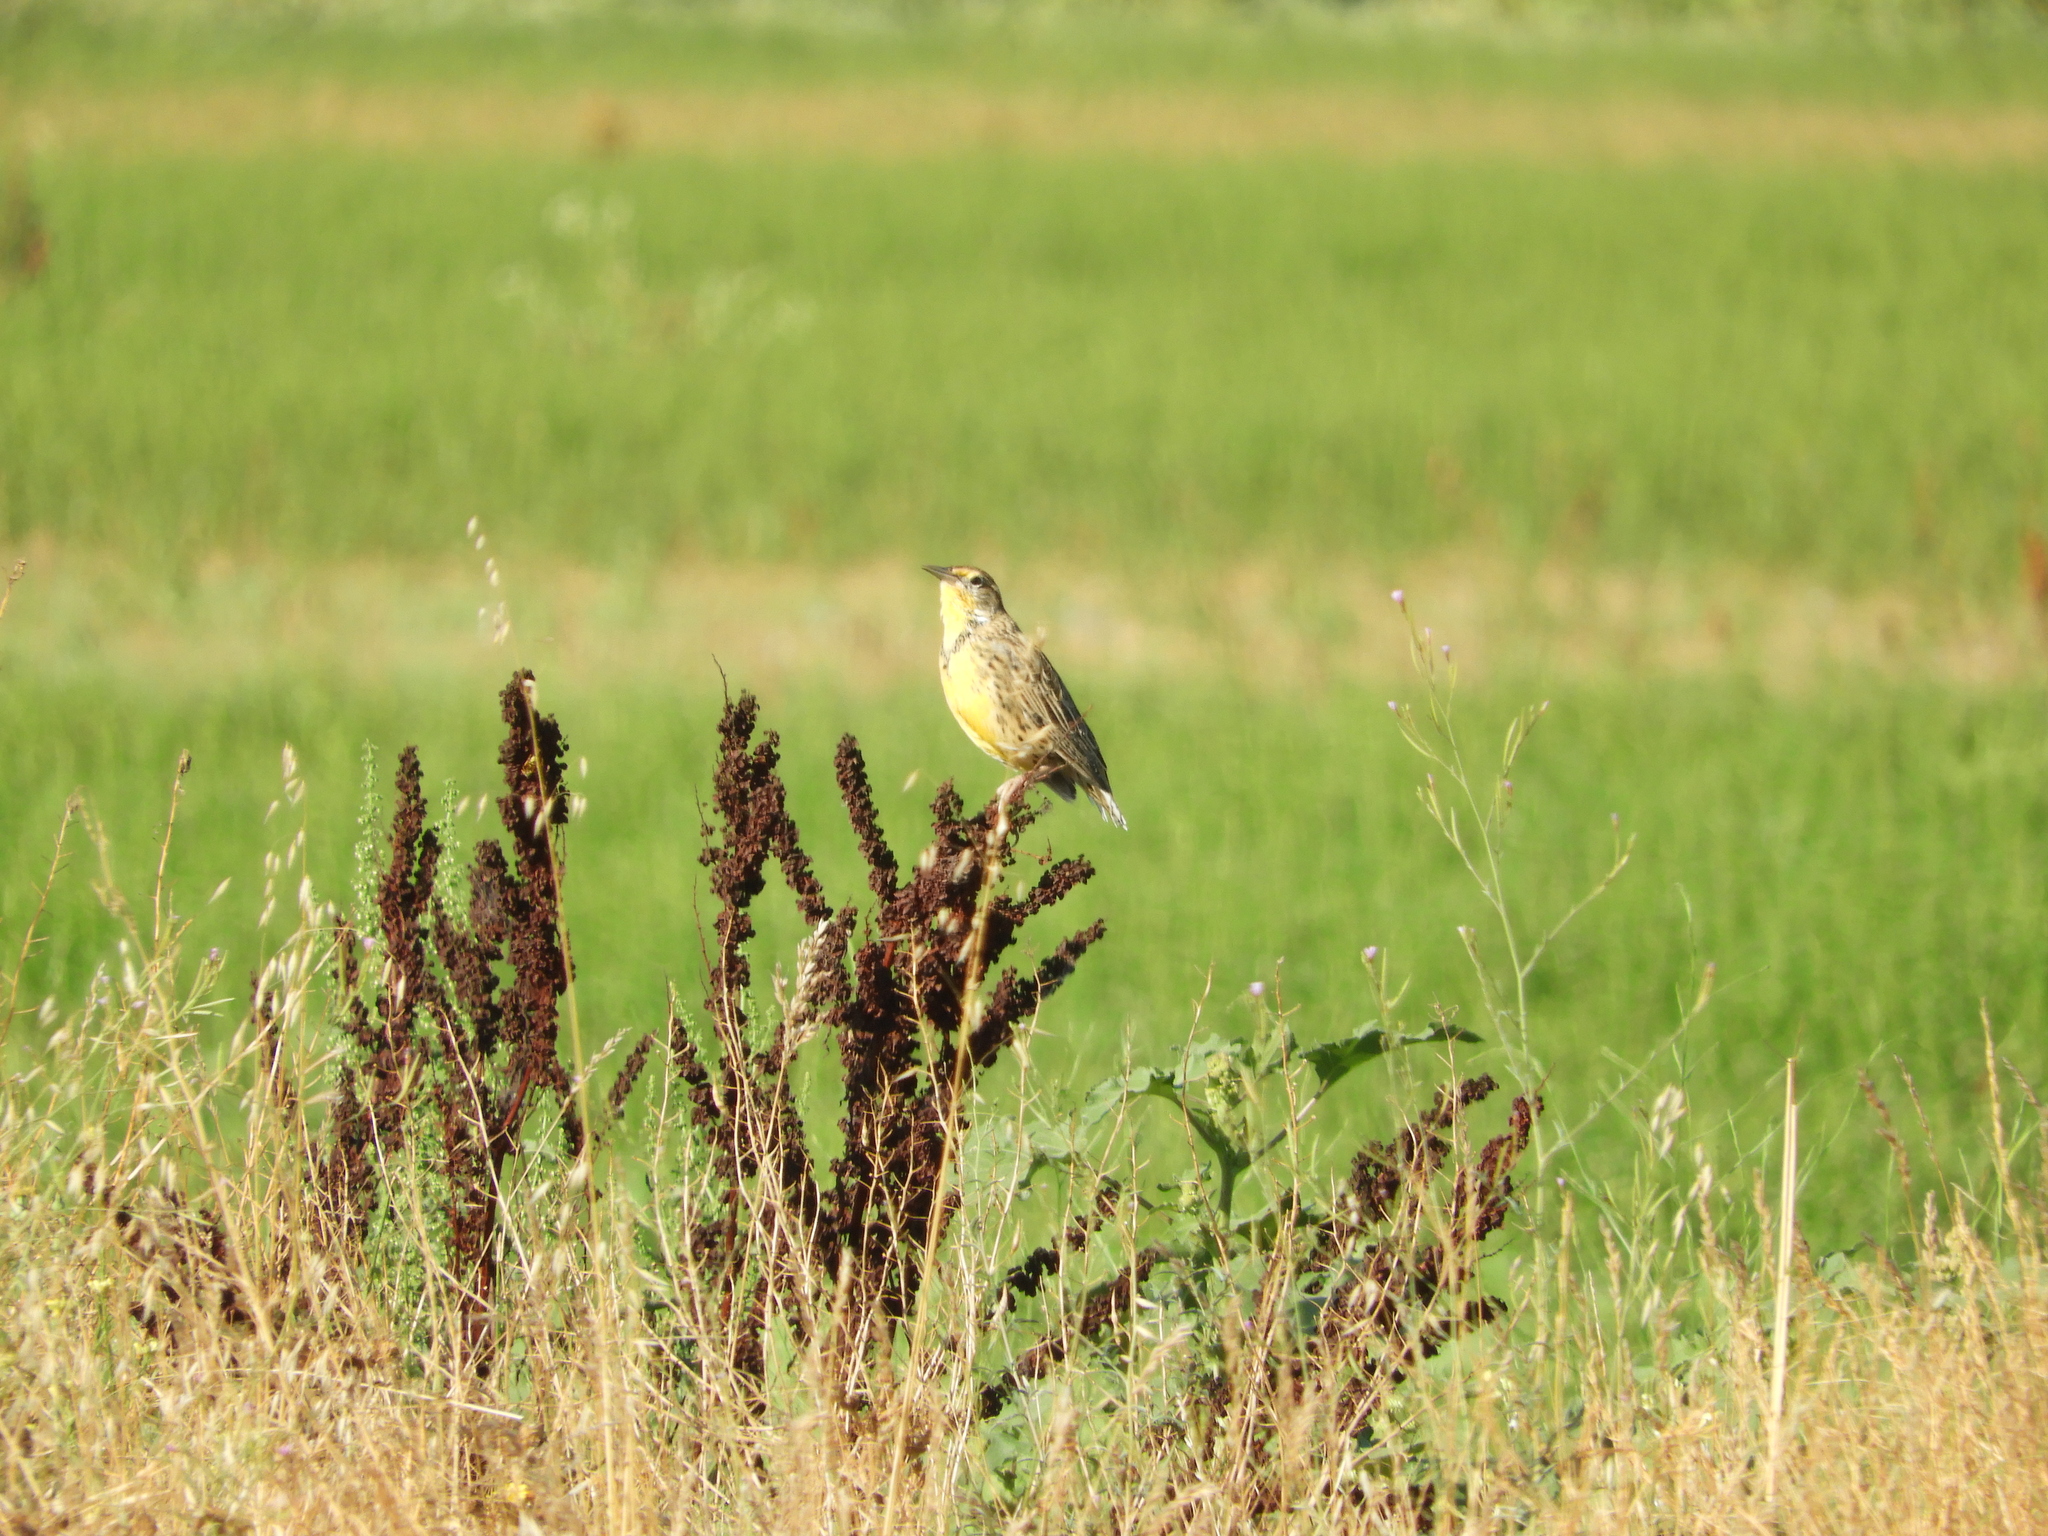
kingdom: Animalia
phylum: Chordata
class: Aves
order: Passeriformes
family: Icteridae
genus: Sturnella
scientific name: Sturnella neglecta
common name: Western meadowlark
